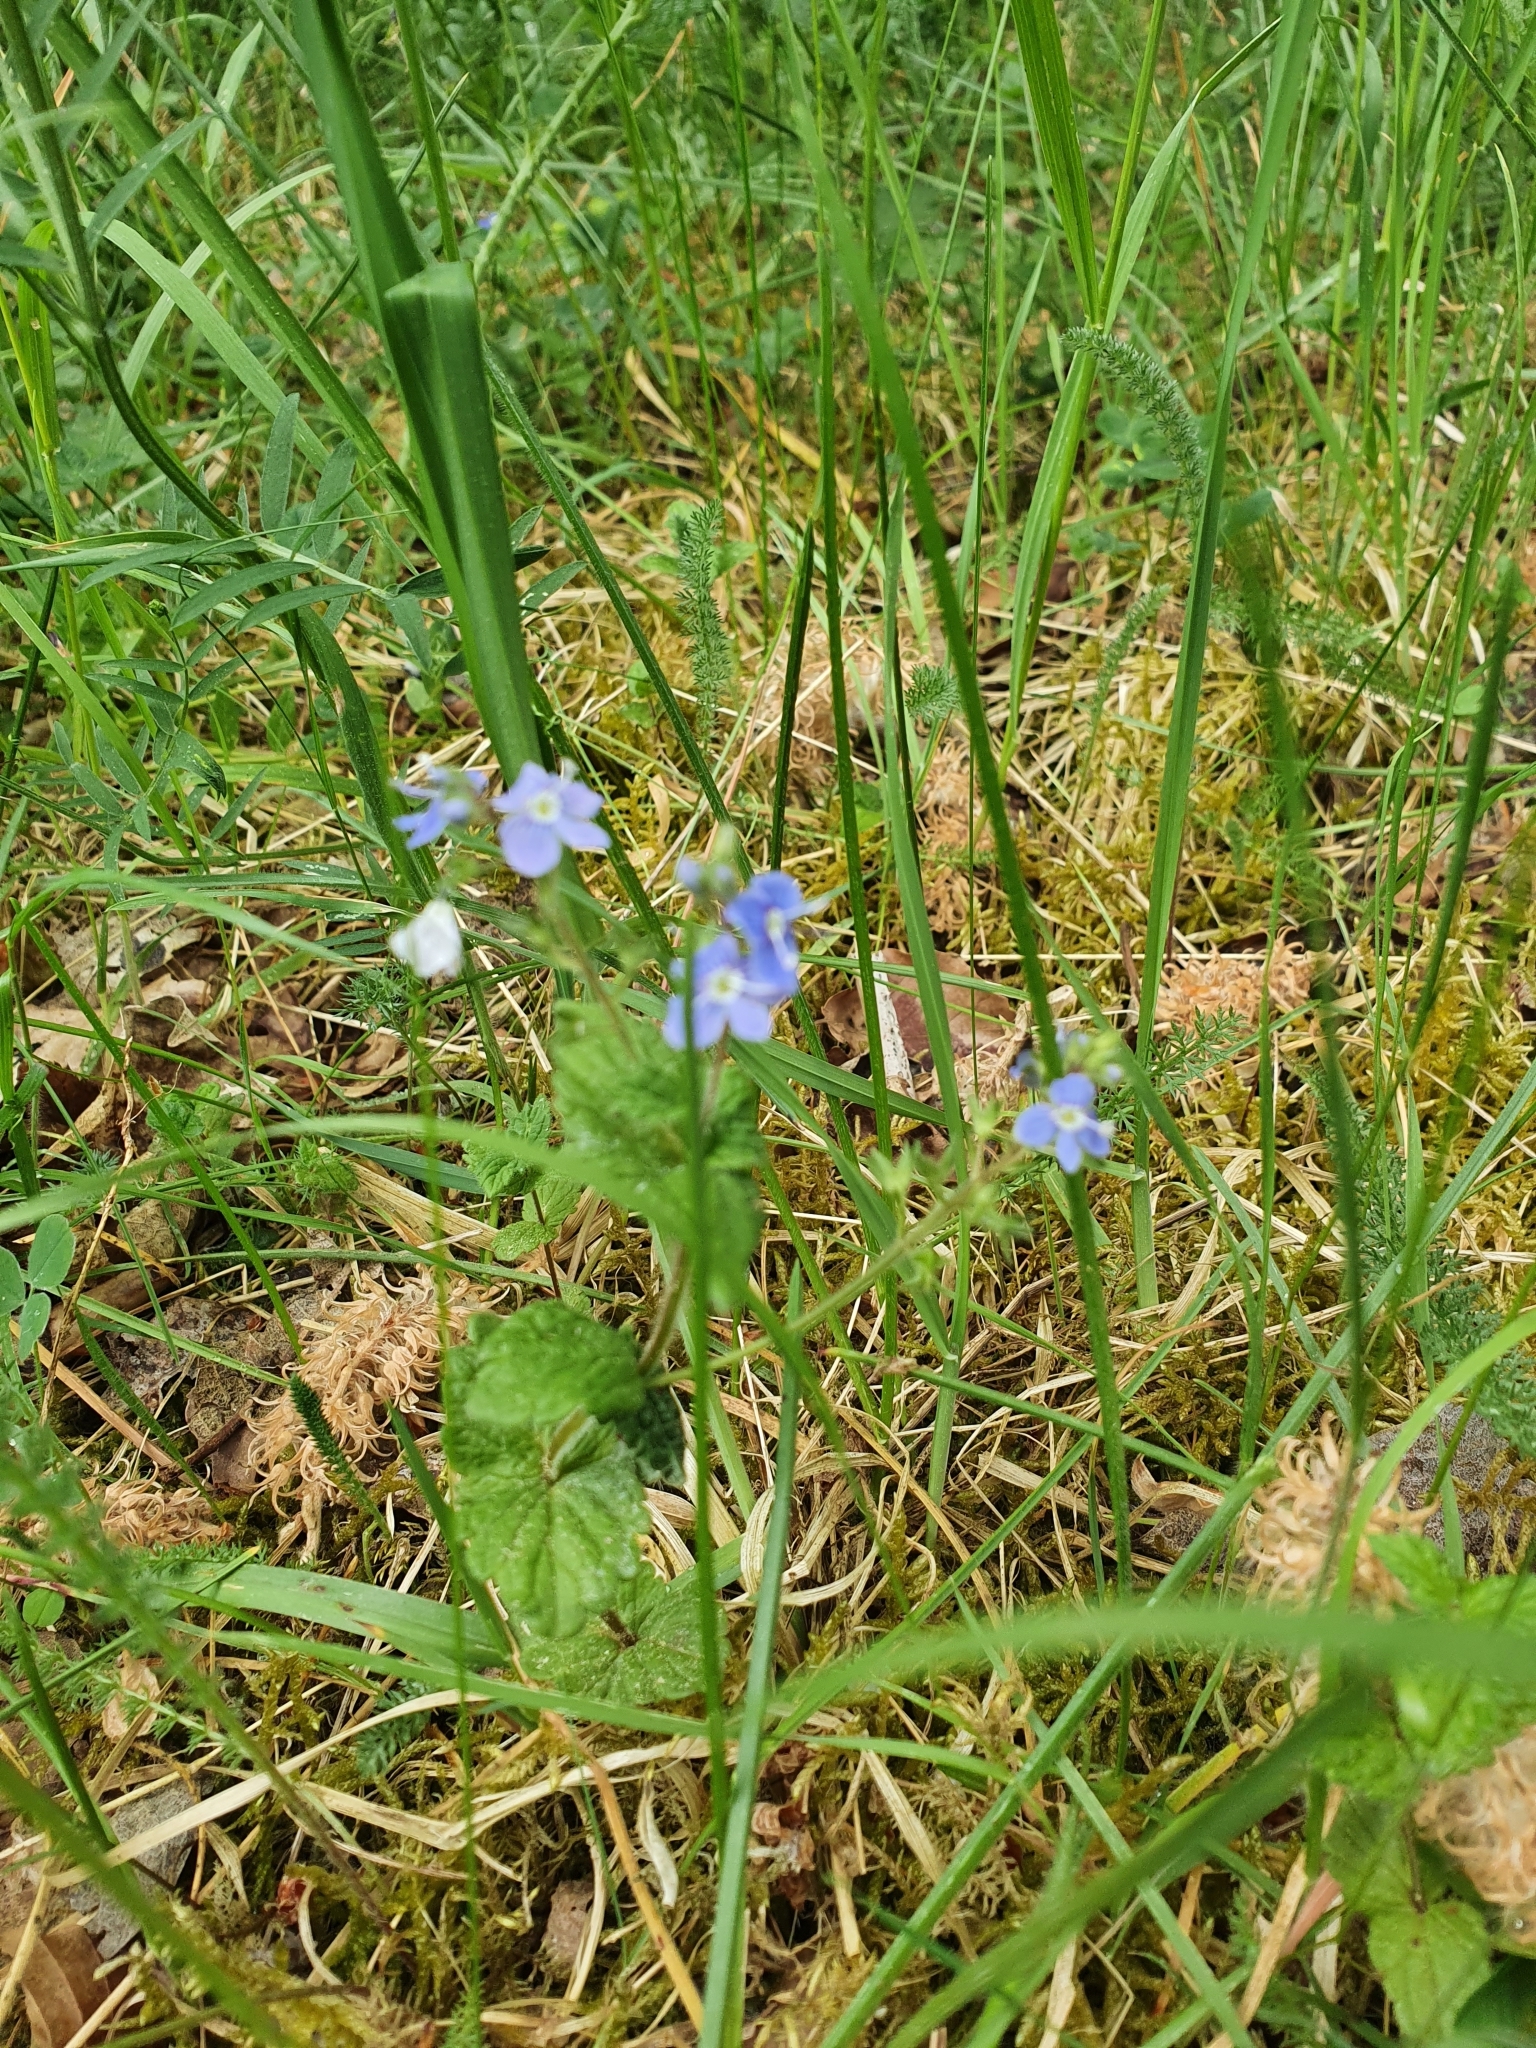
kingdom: Plantae
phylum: Tracheophyta
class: Magnoliopsida
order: Lamiales
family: Plantaginaceae
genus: Veronica
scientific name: Veronica chamaedrys
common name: Germander speedwell
